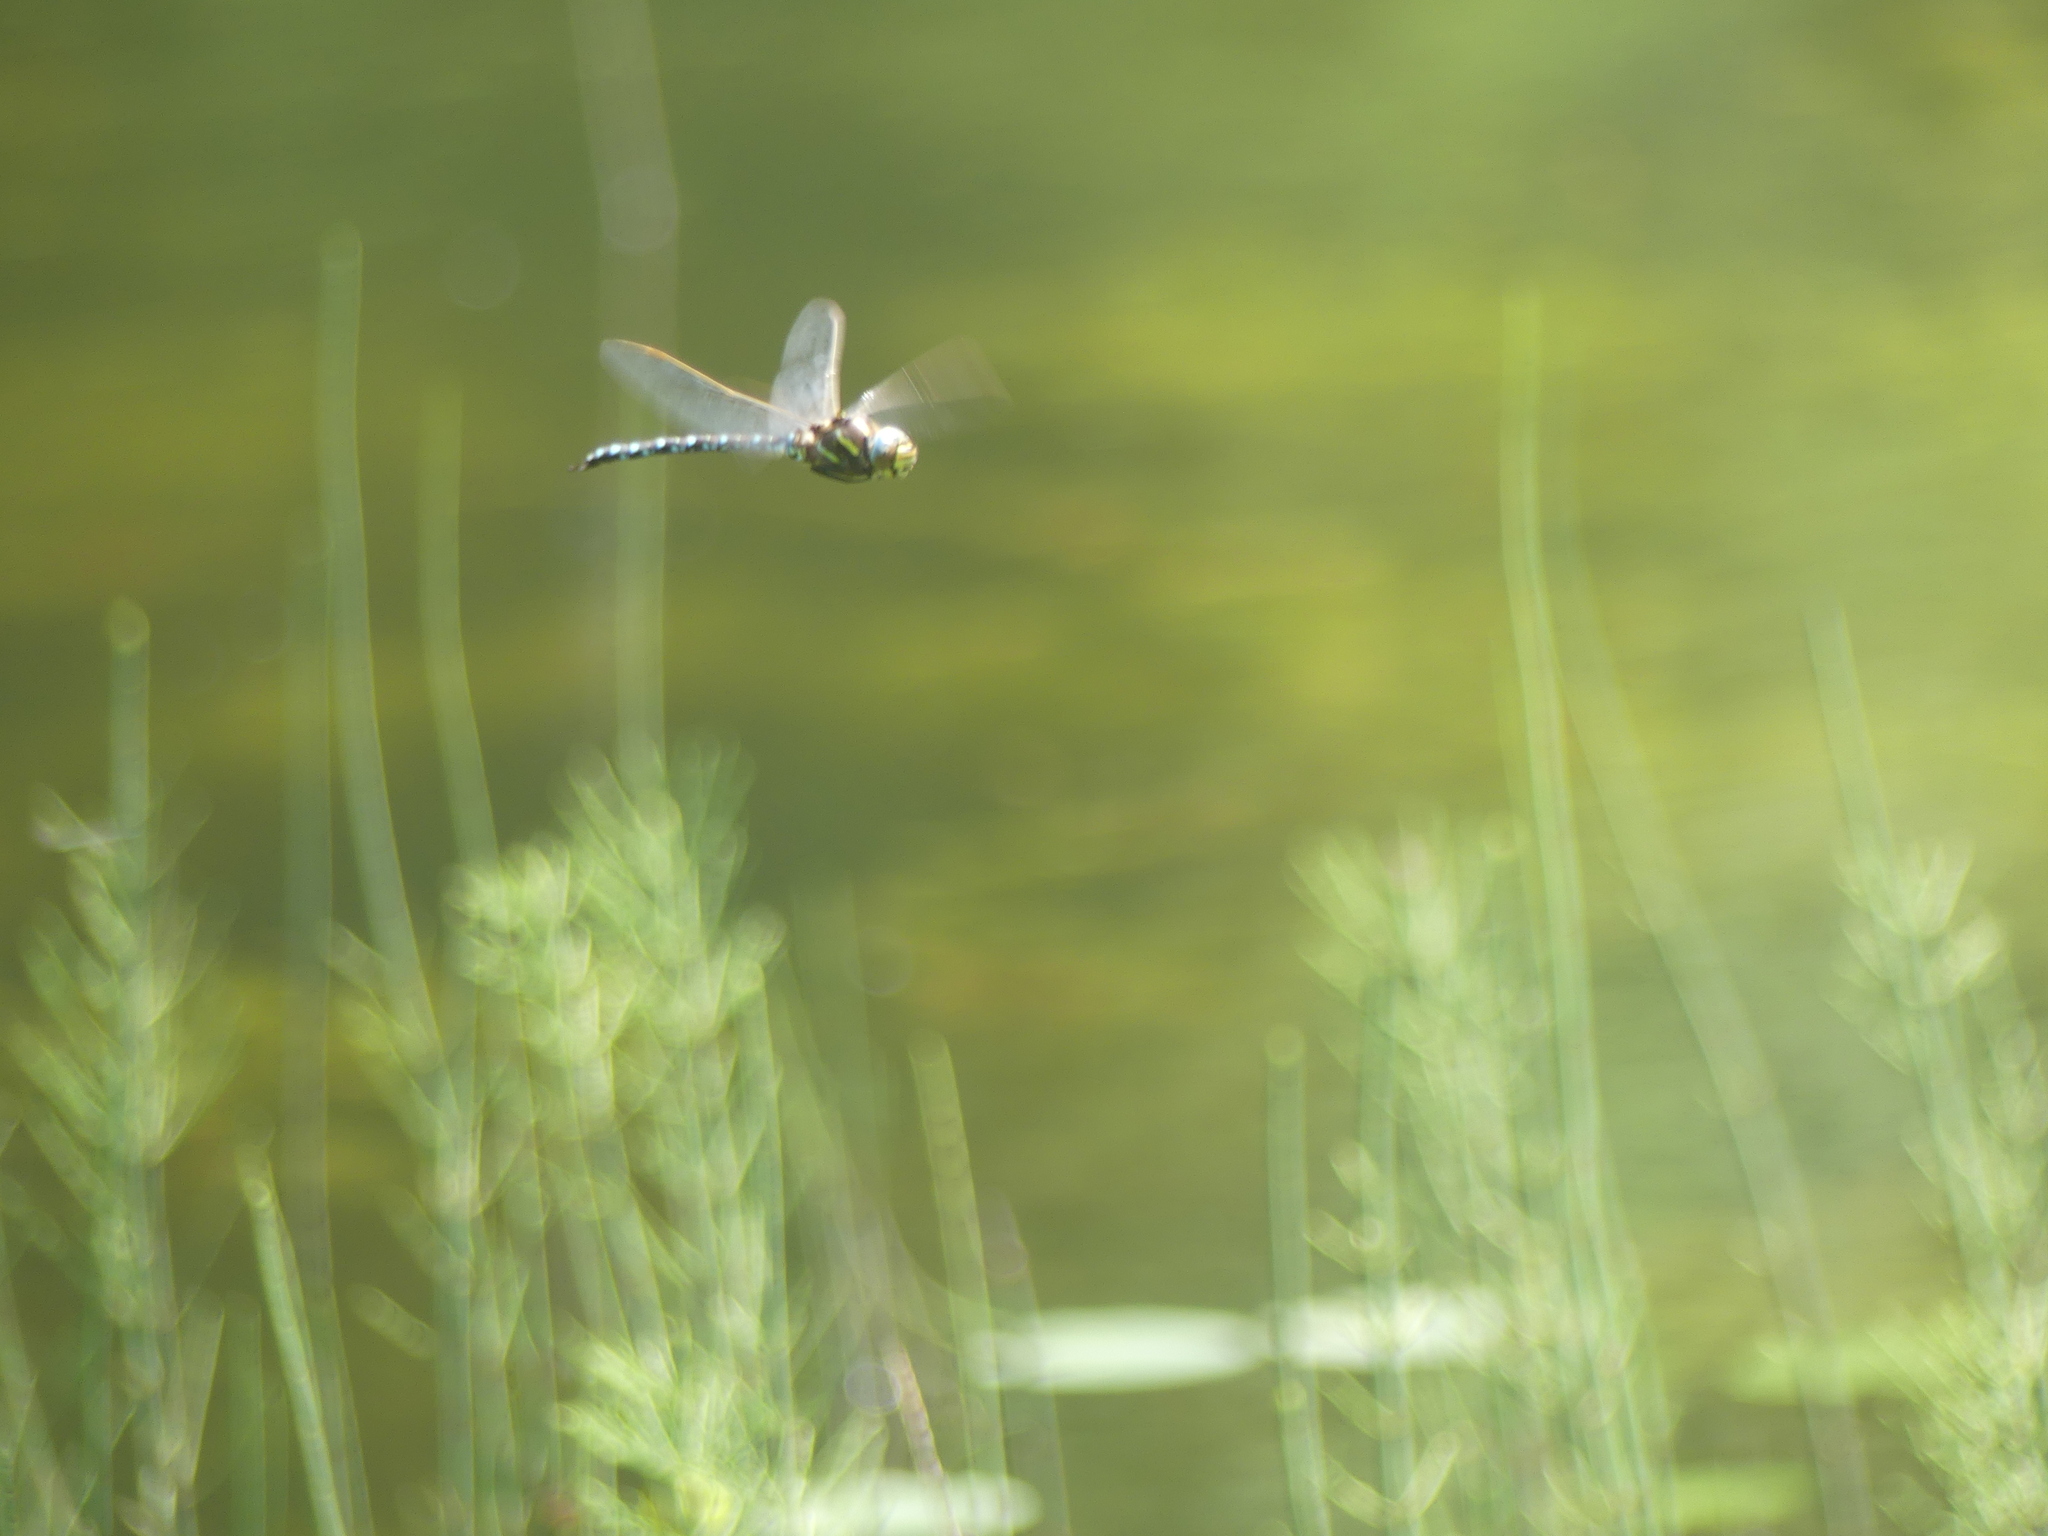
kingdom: Animalia
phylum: Arthropoda
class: Insecta
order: Odonata
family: Aeshnidae
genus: Aeshna
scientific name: Aeshna juncea
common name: Moorland hawker
